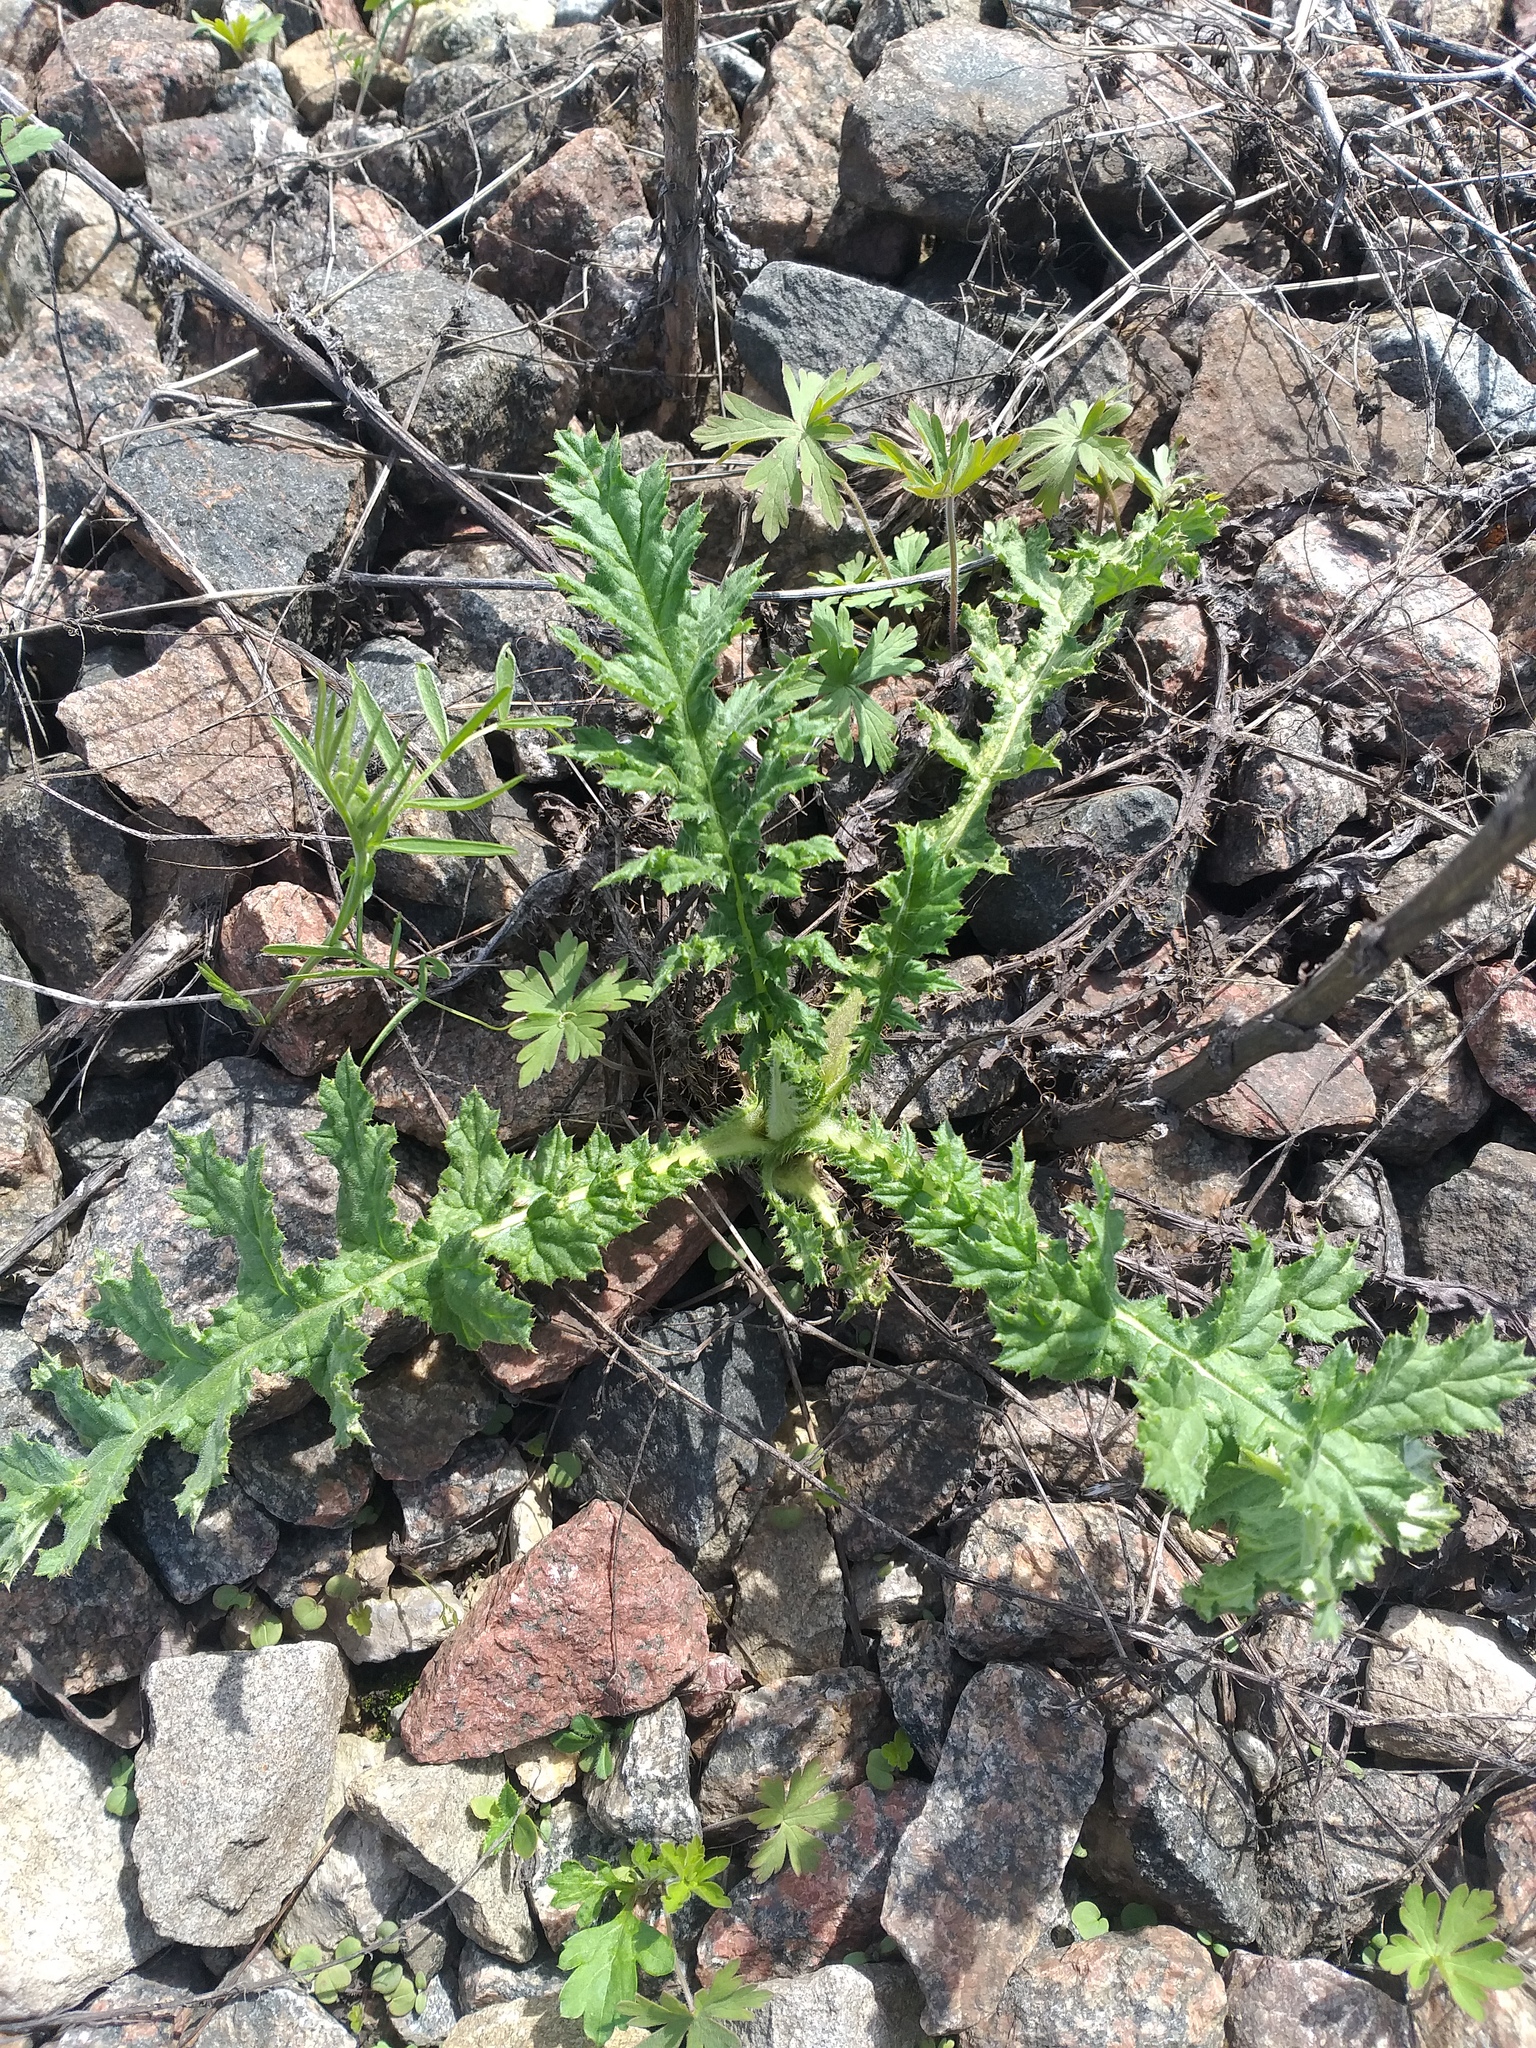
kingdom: Plantae
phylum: Tracheophyta
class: Magnoliopsida
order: Asterales
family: Asteraceae
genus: Echinops
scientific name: Echinops sphaerocephalus
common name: Glandular globe-thistle
